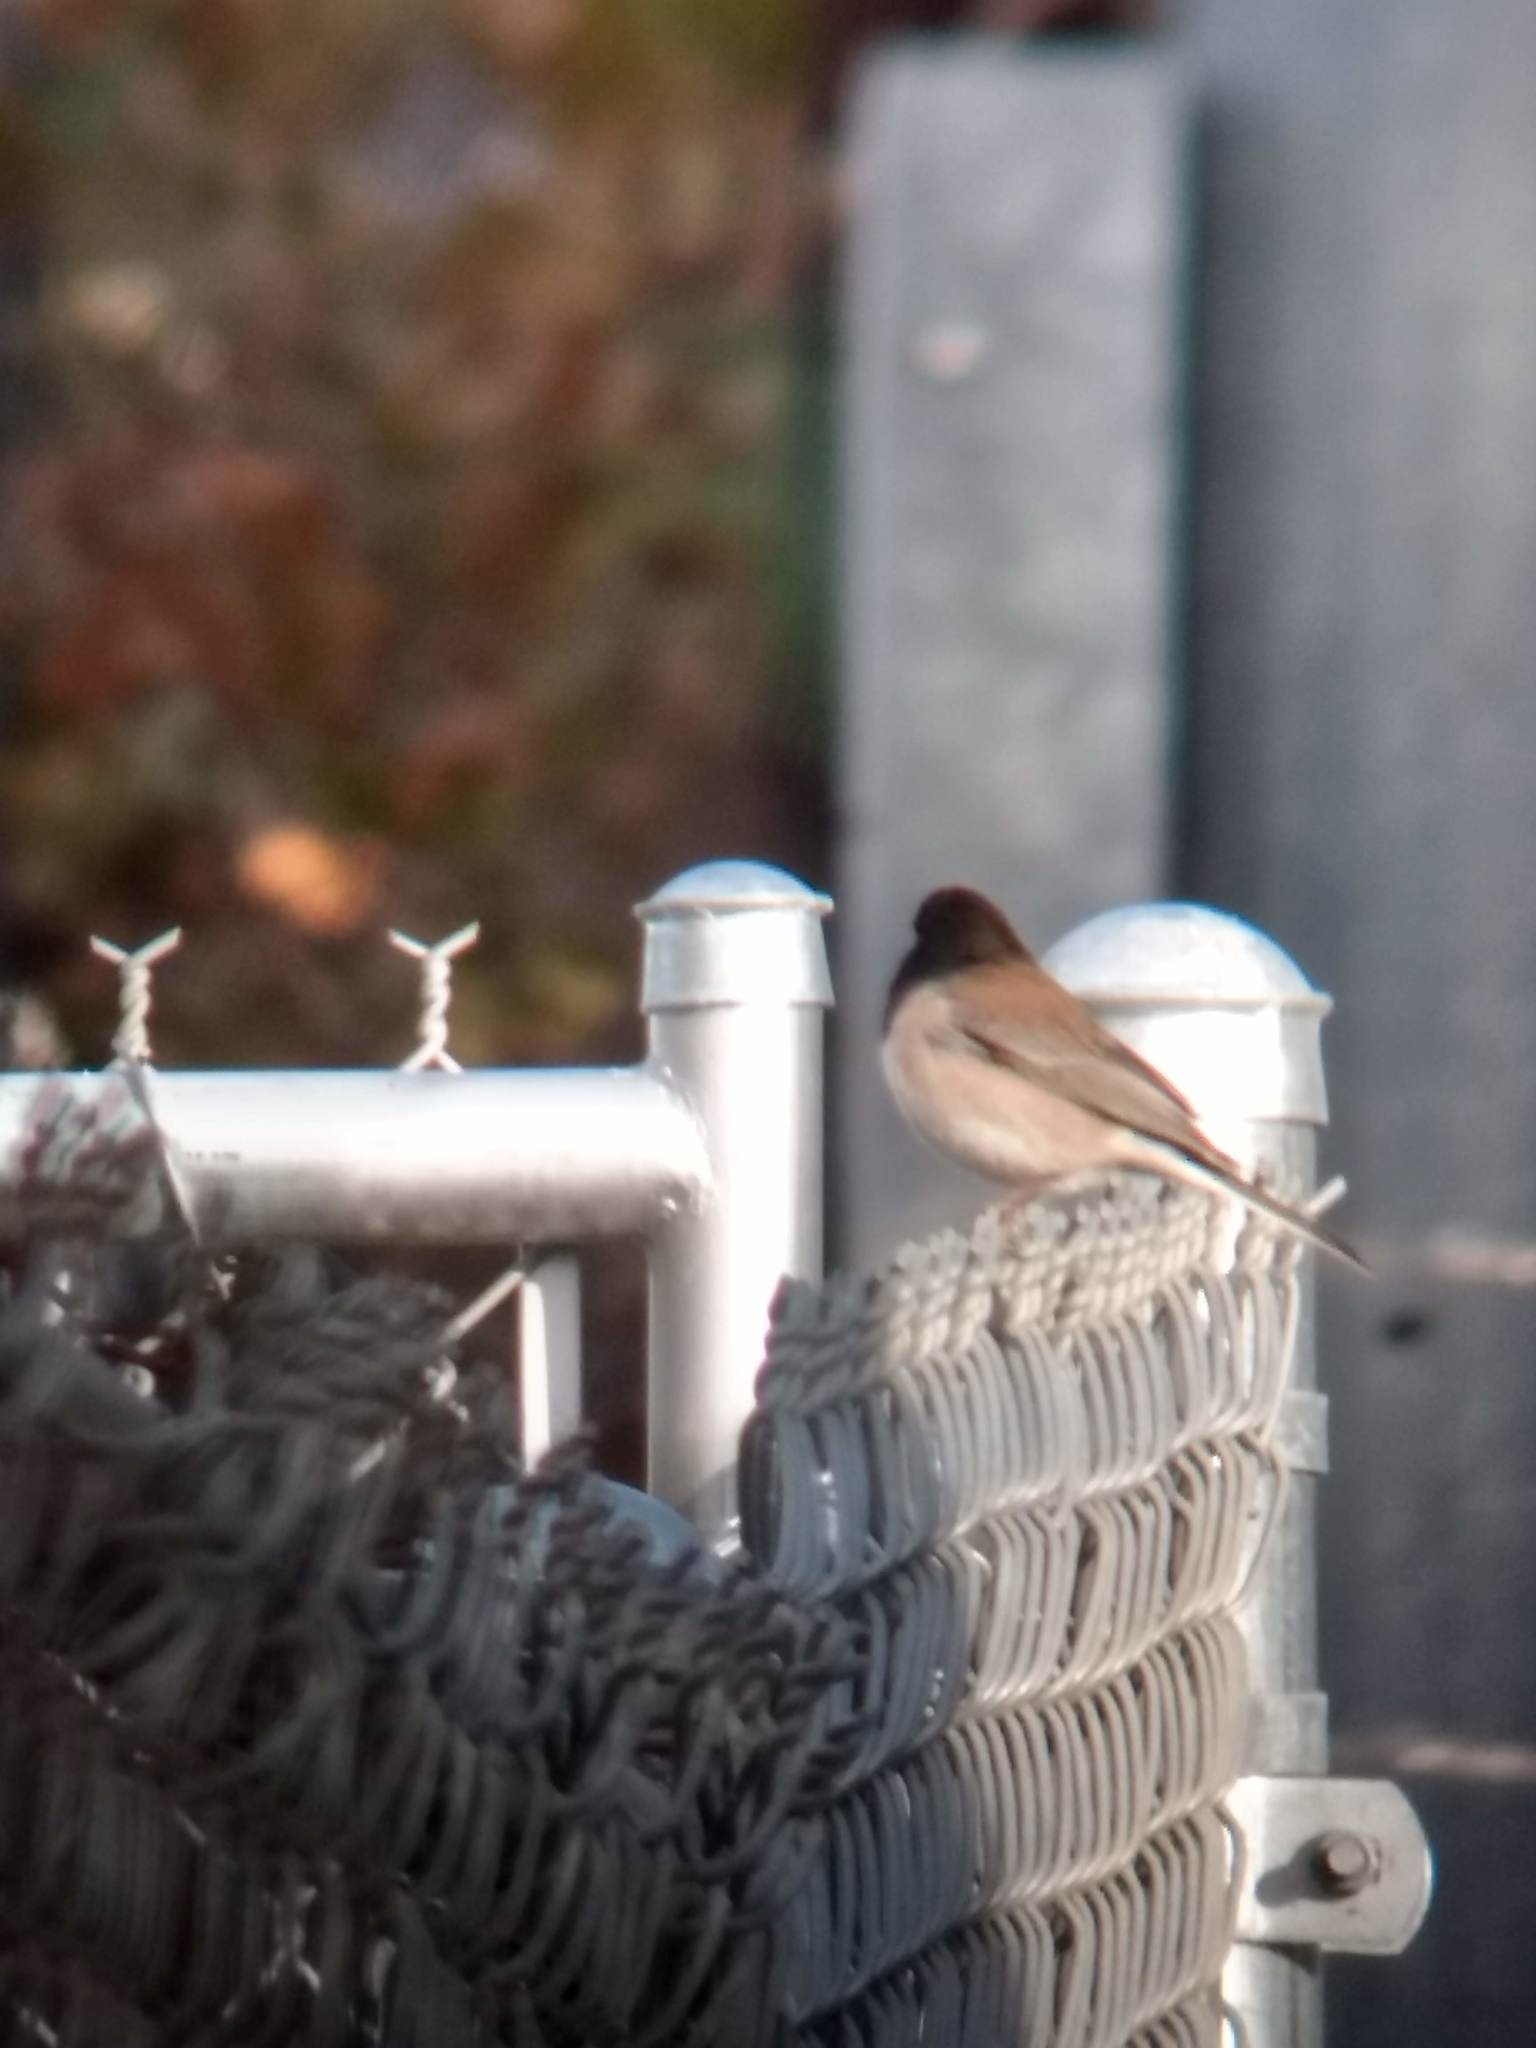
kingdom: Animalia
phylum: Chordata
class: Aves
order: Passeriformes
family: Passerellidae
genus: Junco
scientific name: Junco hyemalis
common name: Dark-eyed junco
